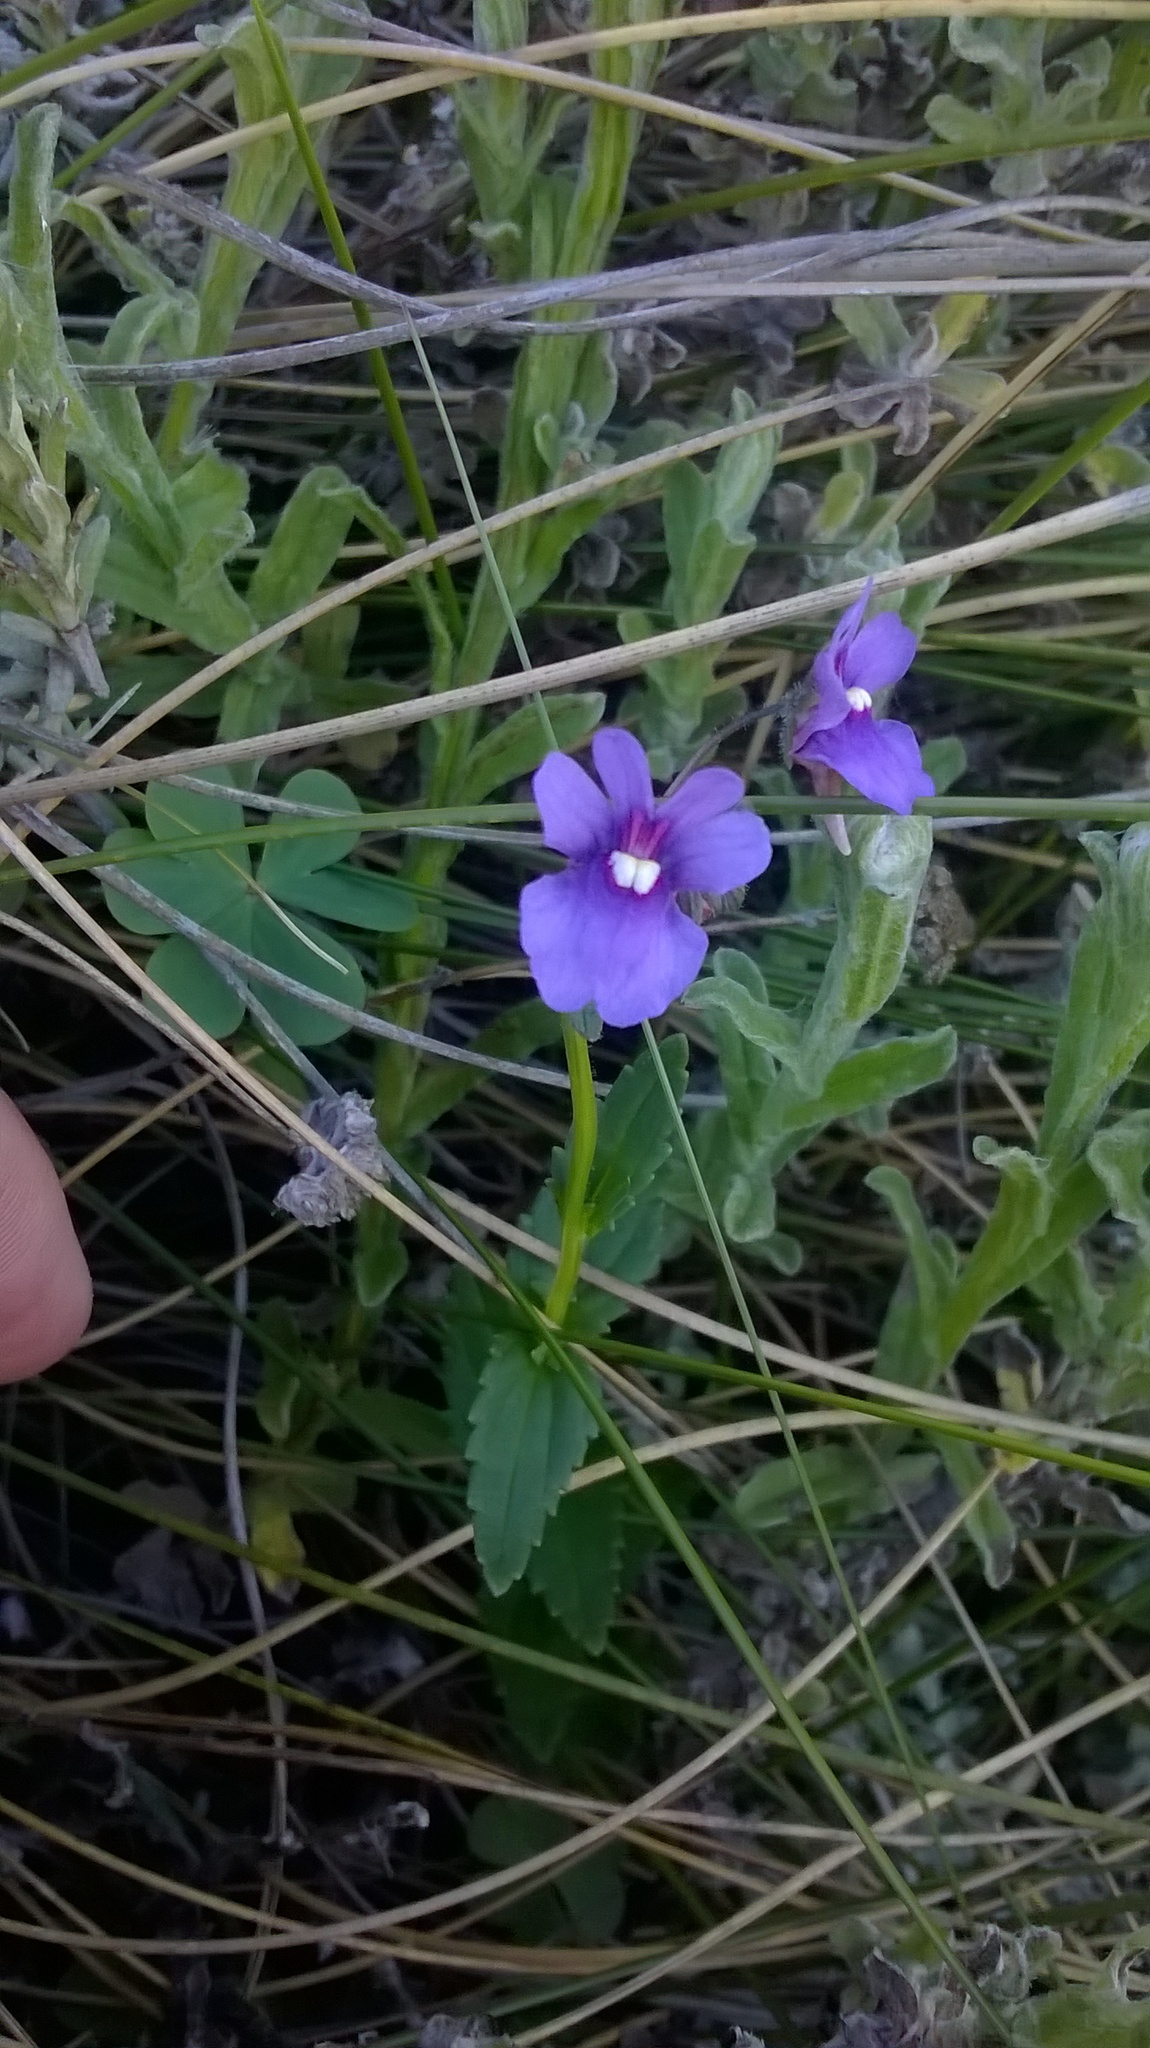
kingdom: Plantae
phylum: Tracheophyta
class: Magnoliopsida
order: Lamiales
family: Scrophulariaceae
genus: Nemesia
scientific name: Nemesia caerulea
